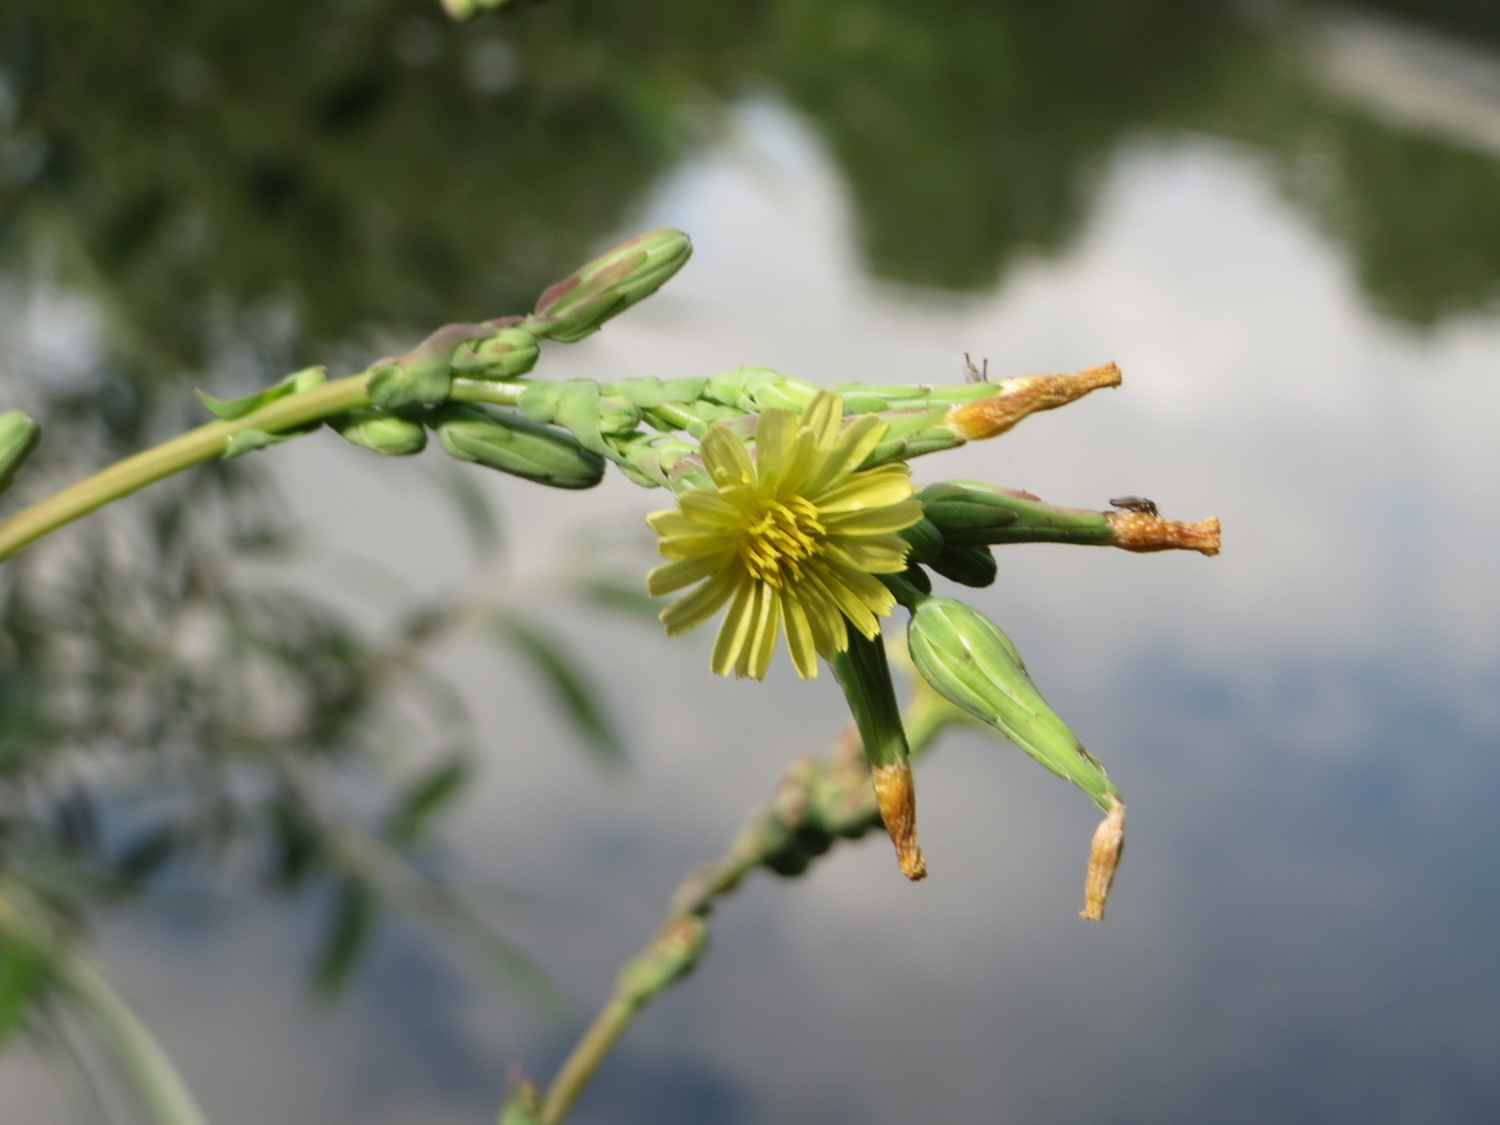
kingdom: Plantae
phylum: Tracheophyta
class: Magnoliopsida
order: Asterales
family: Asteraceae
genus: Lactuca
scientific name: Lactuca serriola
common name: Prickly lettuce
